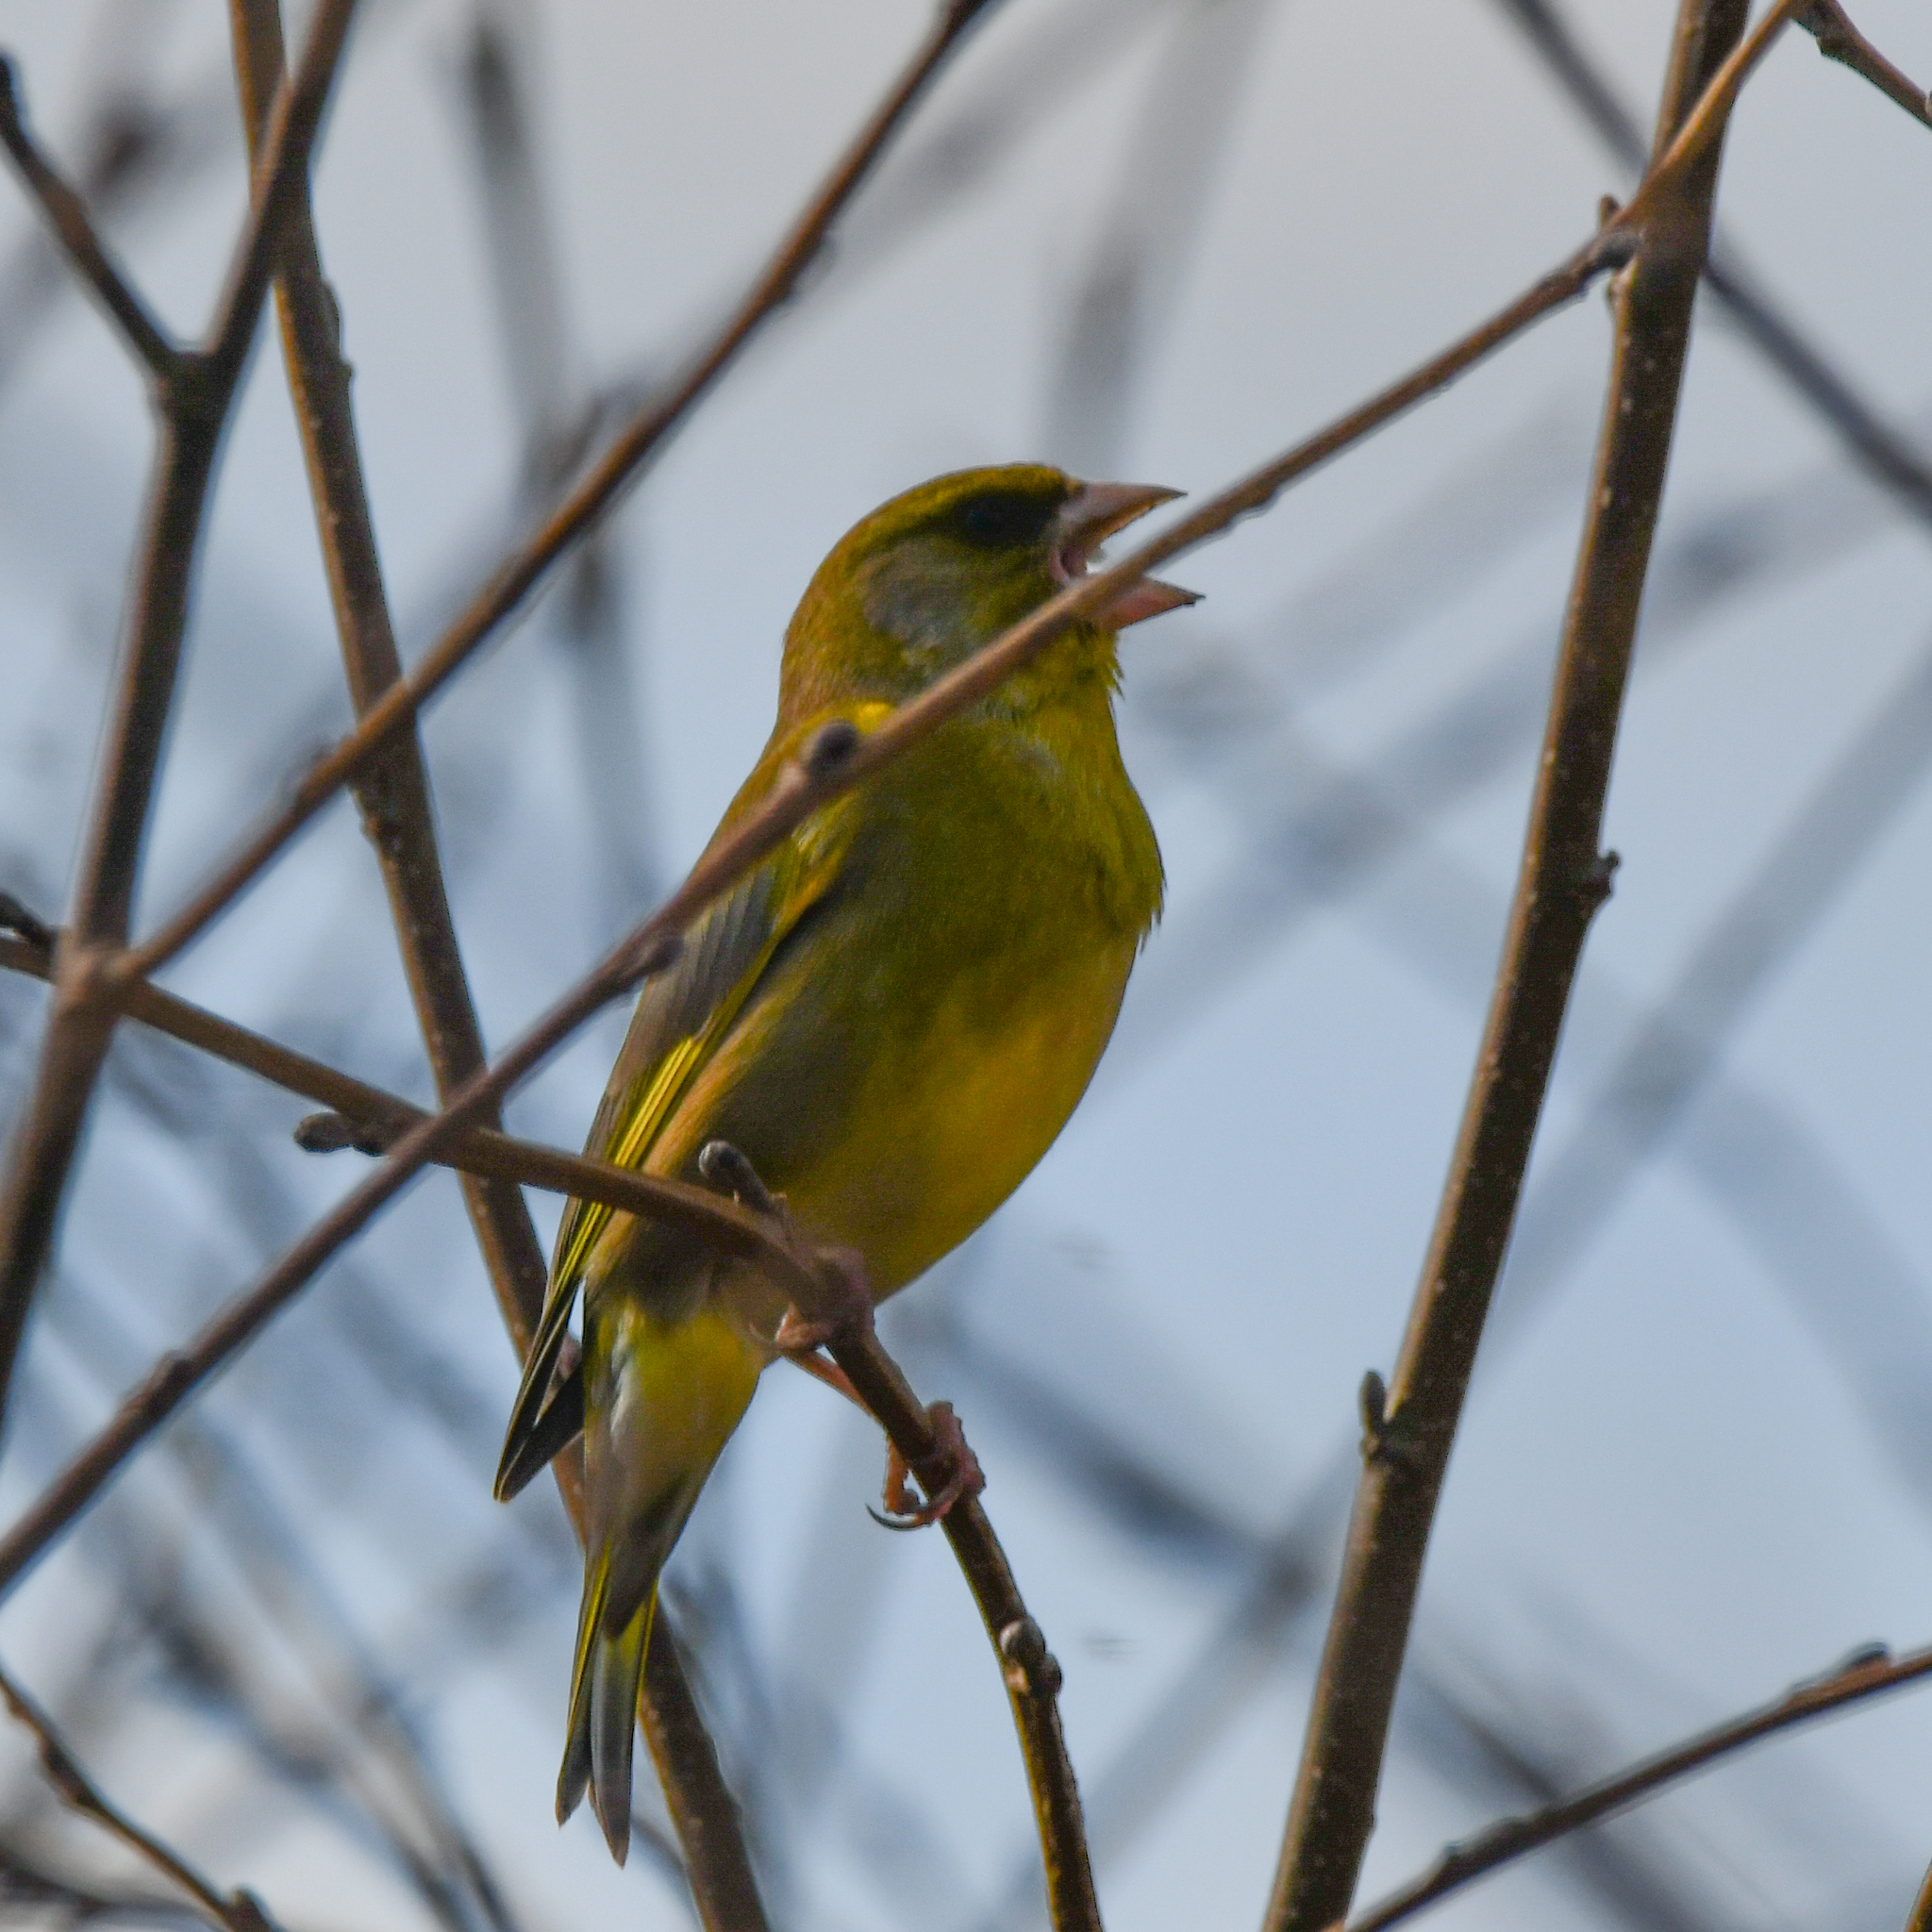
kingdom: Plantae
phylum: Tracheophyta
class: Liliopsida
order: Poales
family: Poaceae
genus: Chloris
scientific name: Chloris chloris
